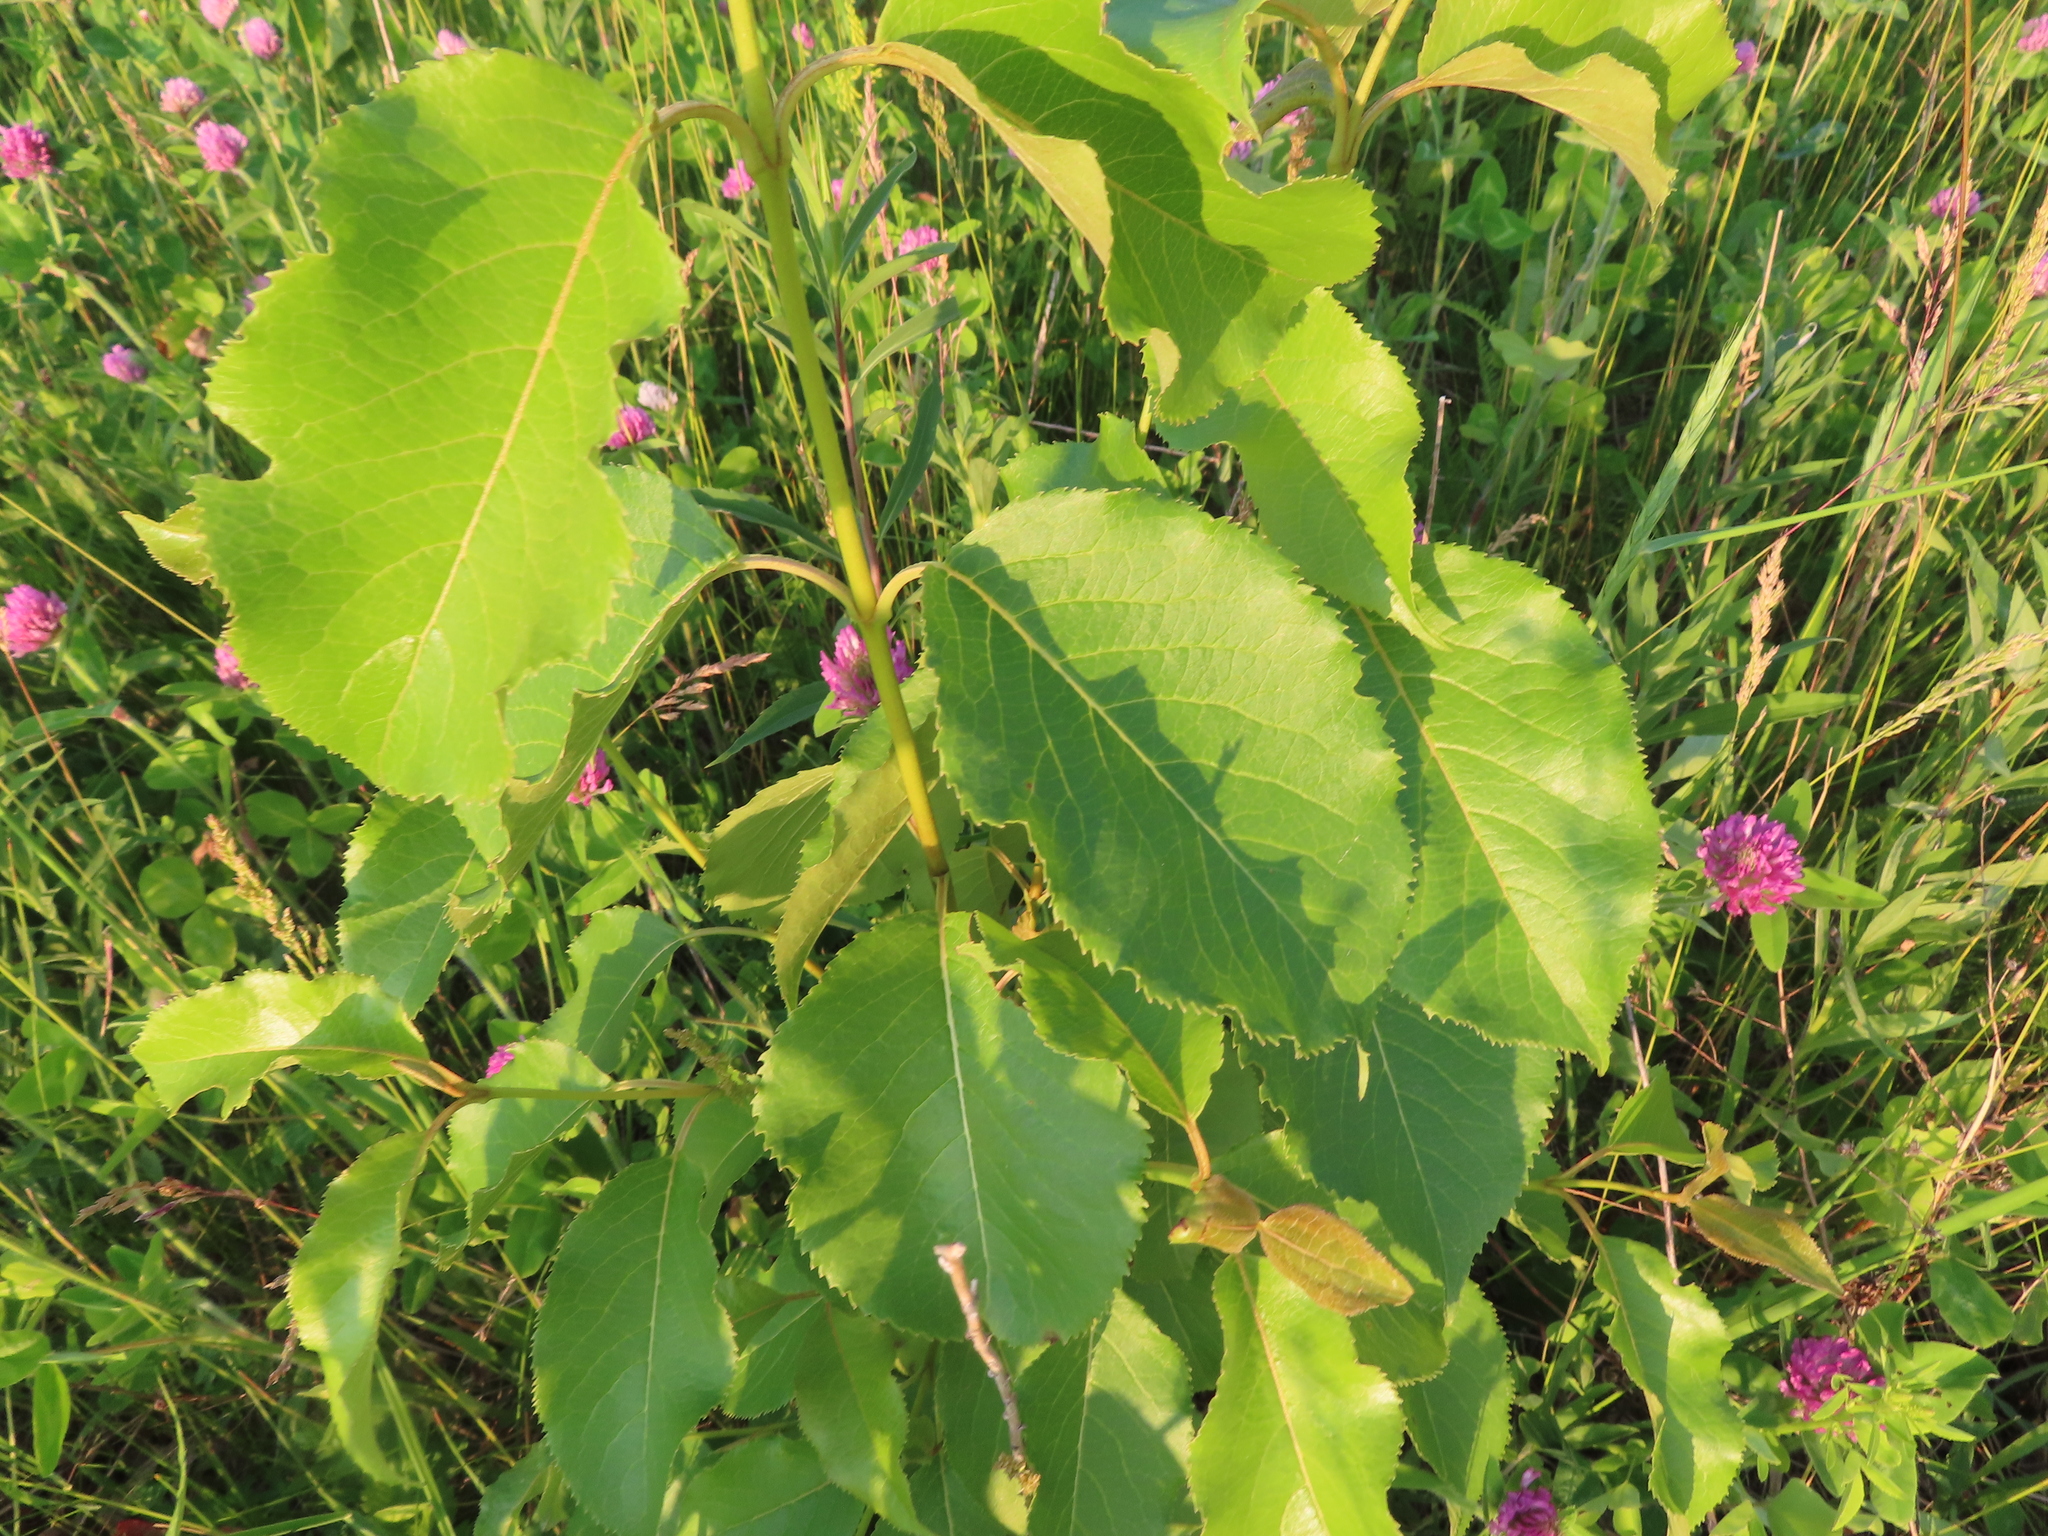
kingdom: Plantae
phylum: Tracheophyta
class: Magnoliopsida
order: Dipsacales
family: Viburnaceae
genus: Viburnum
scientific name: Viburnum lentago
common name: Black haw
